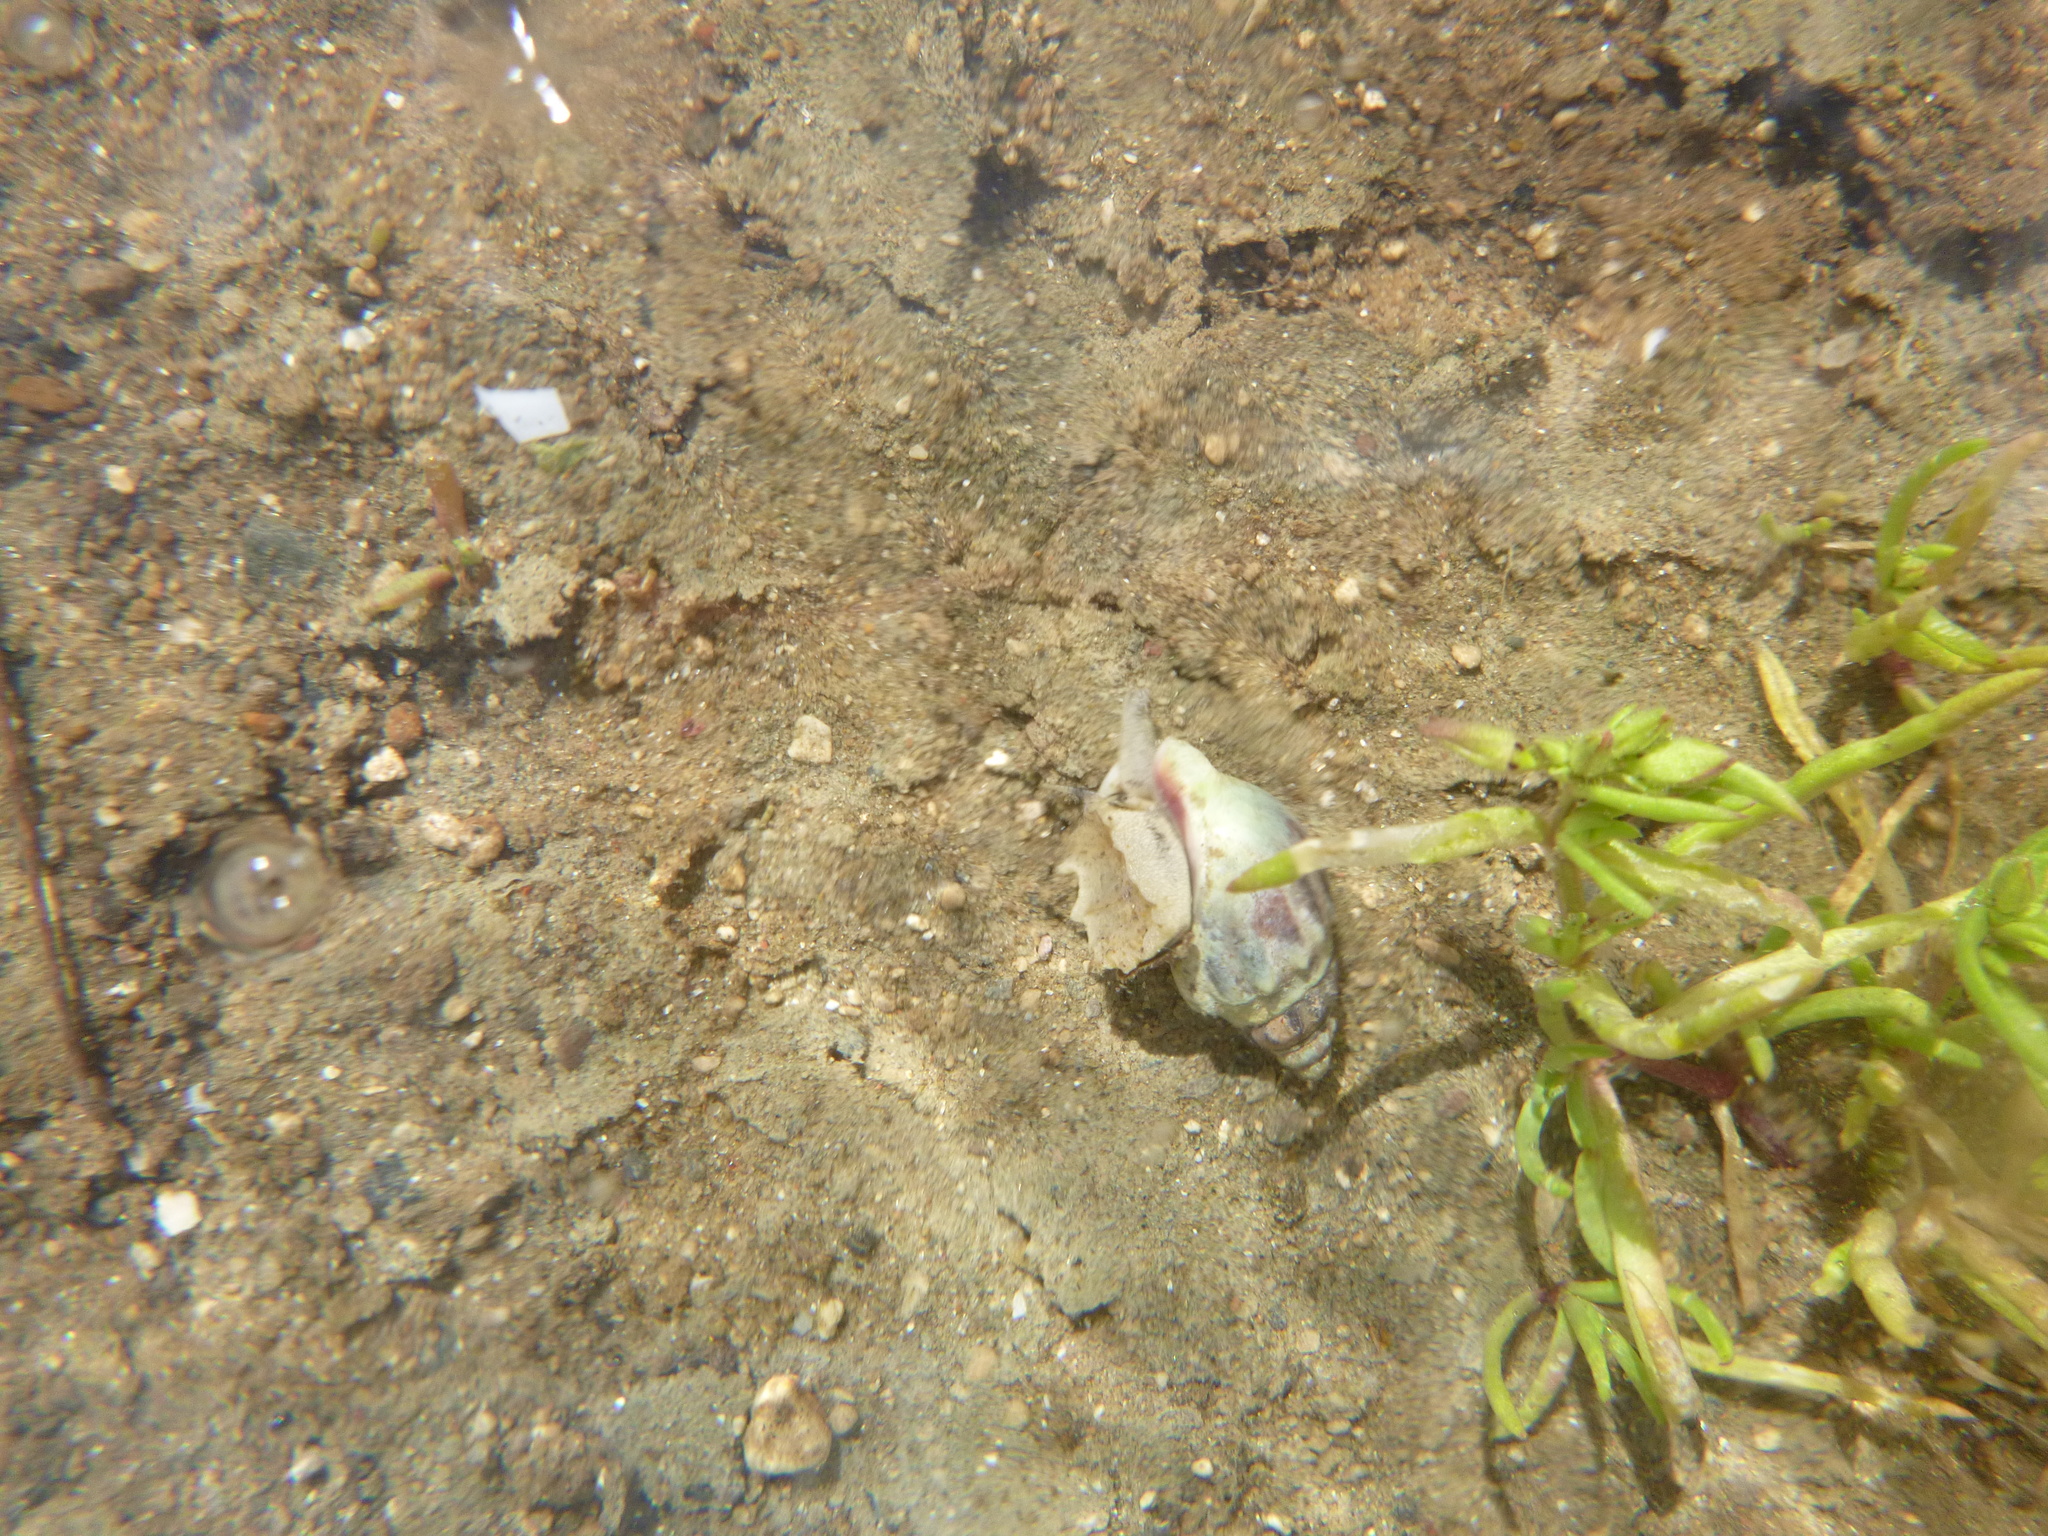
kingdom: Animalia
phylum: Mollusca
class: Gastropoda
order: Neogastropoda
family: Cominellidae
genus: Cominella
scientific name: Cominella glandiformis
